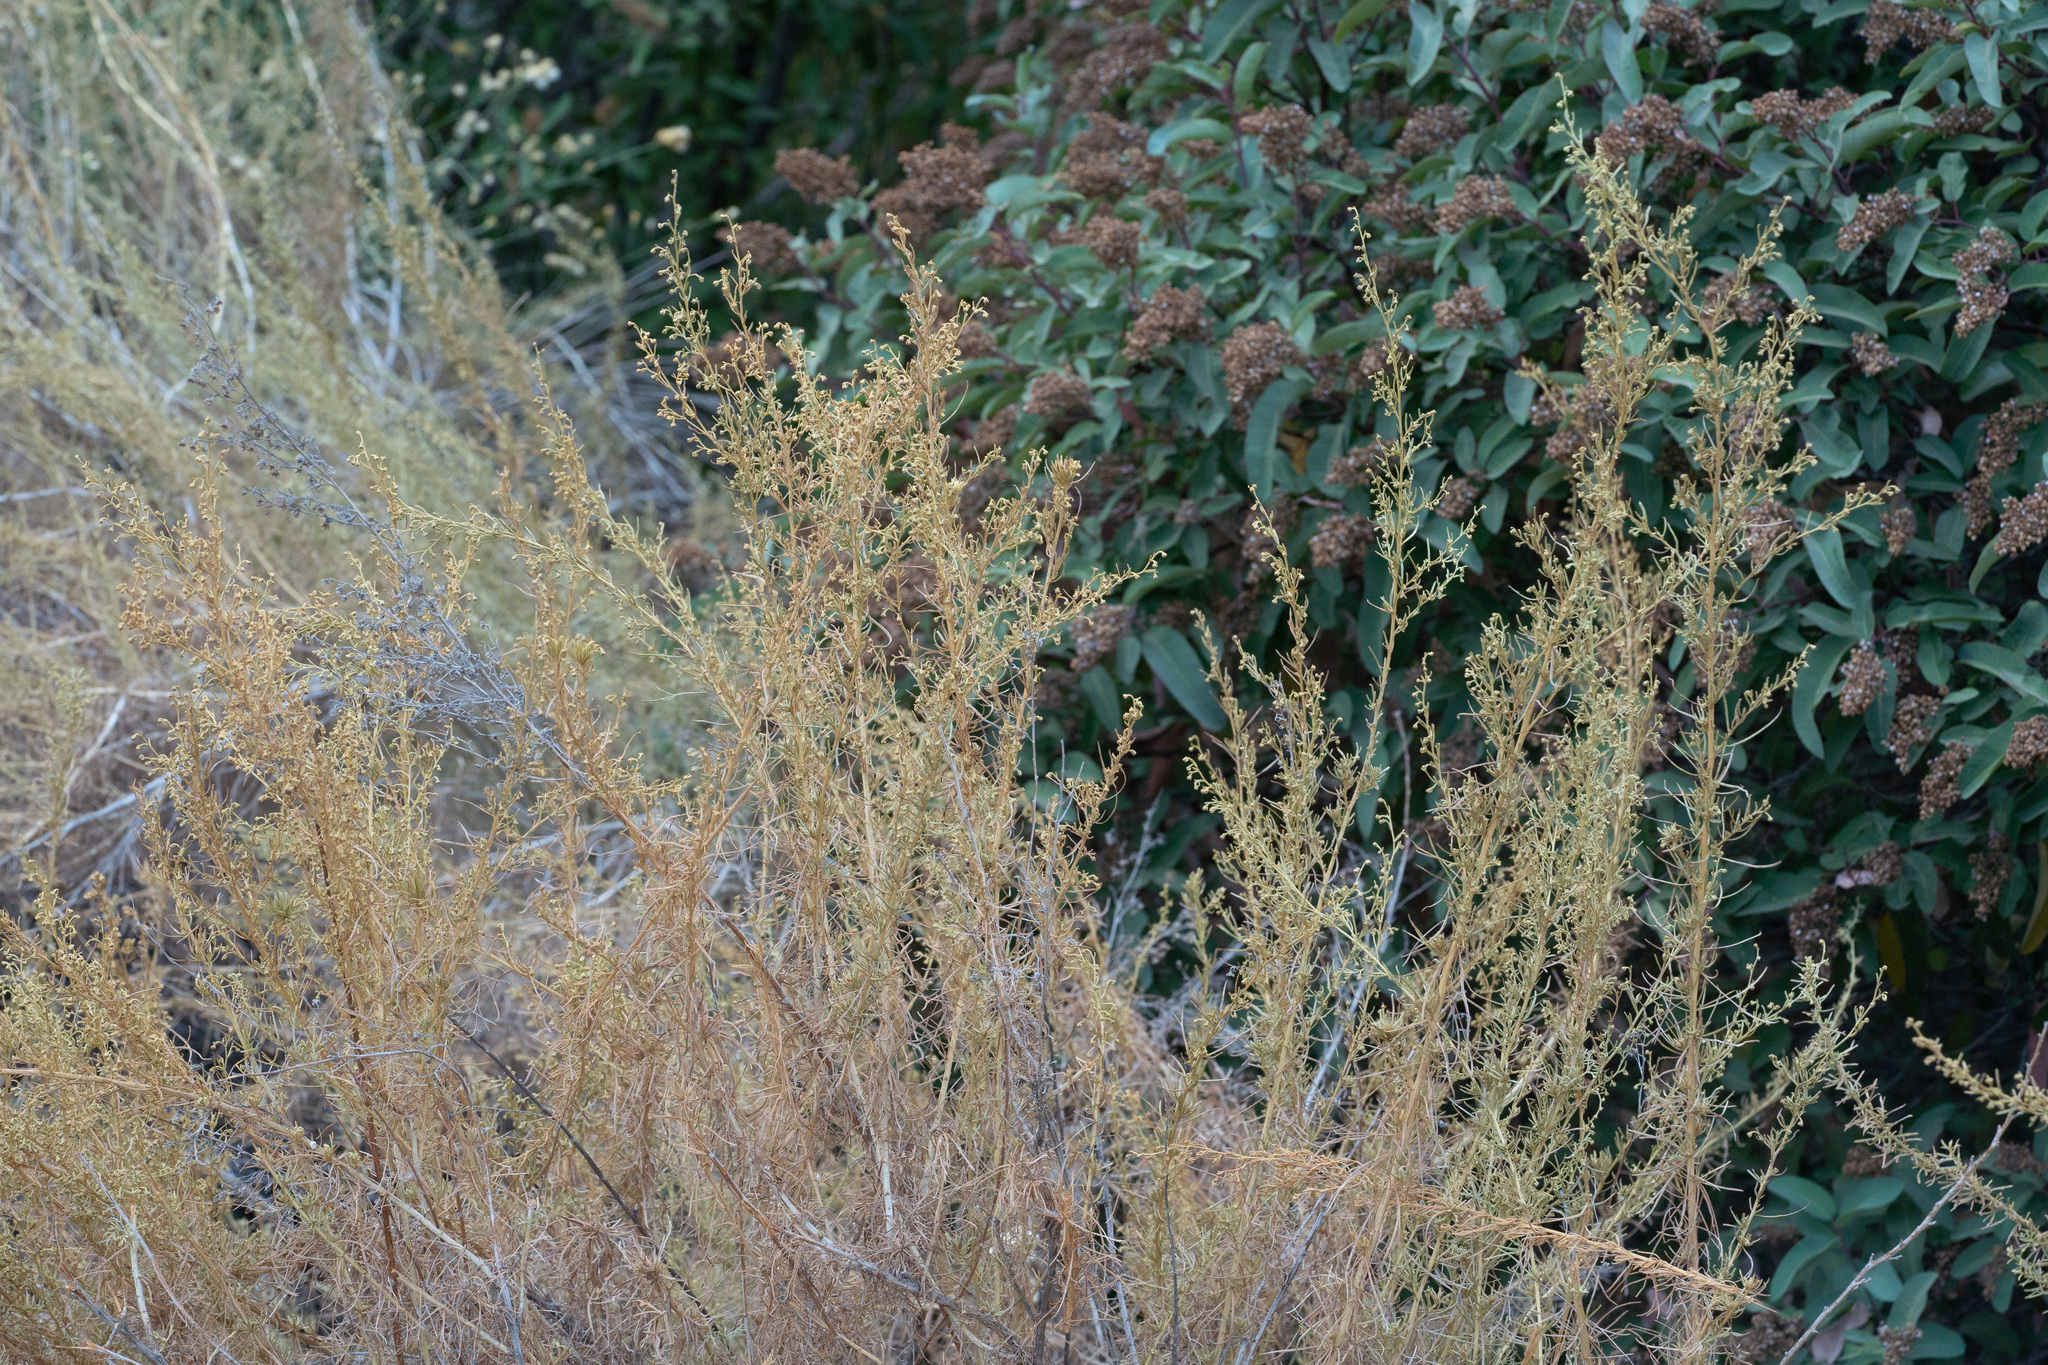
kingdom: Plantae
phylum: Tracheophyta
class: Magnoliopsida
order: Asterales
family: Asteraceae
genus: Artemisia
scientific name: Artemisia californica
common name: California sagebrush
